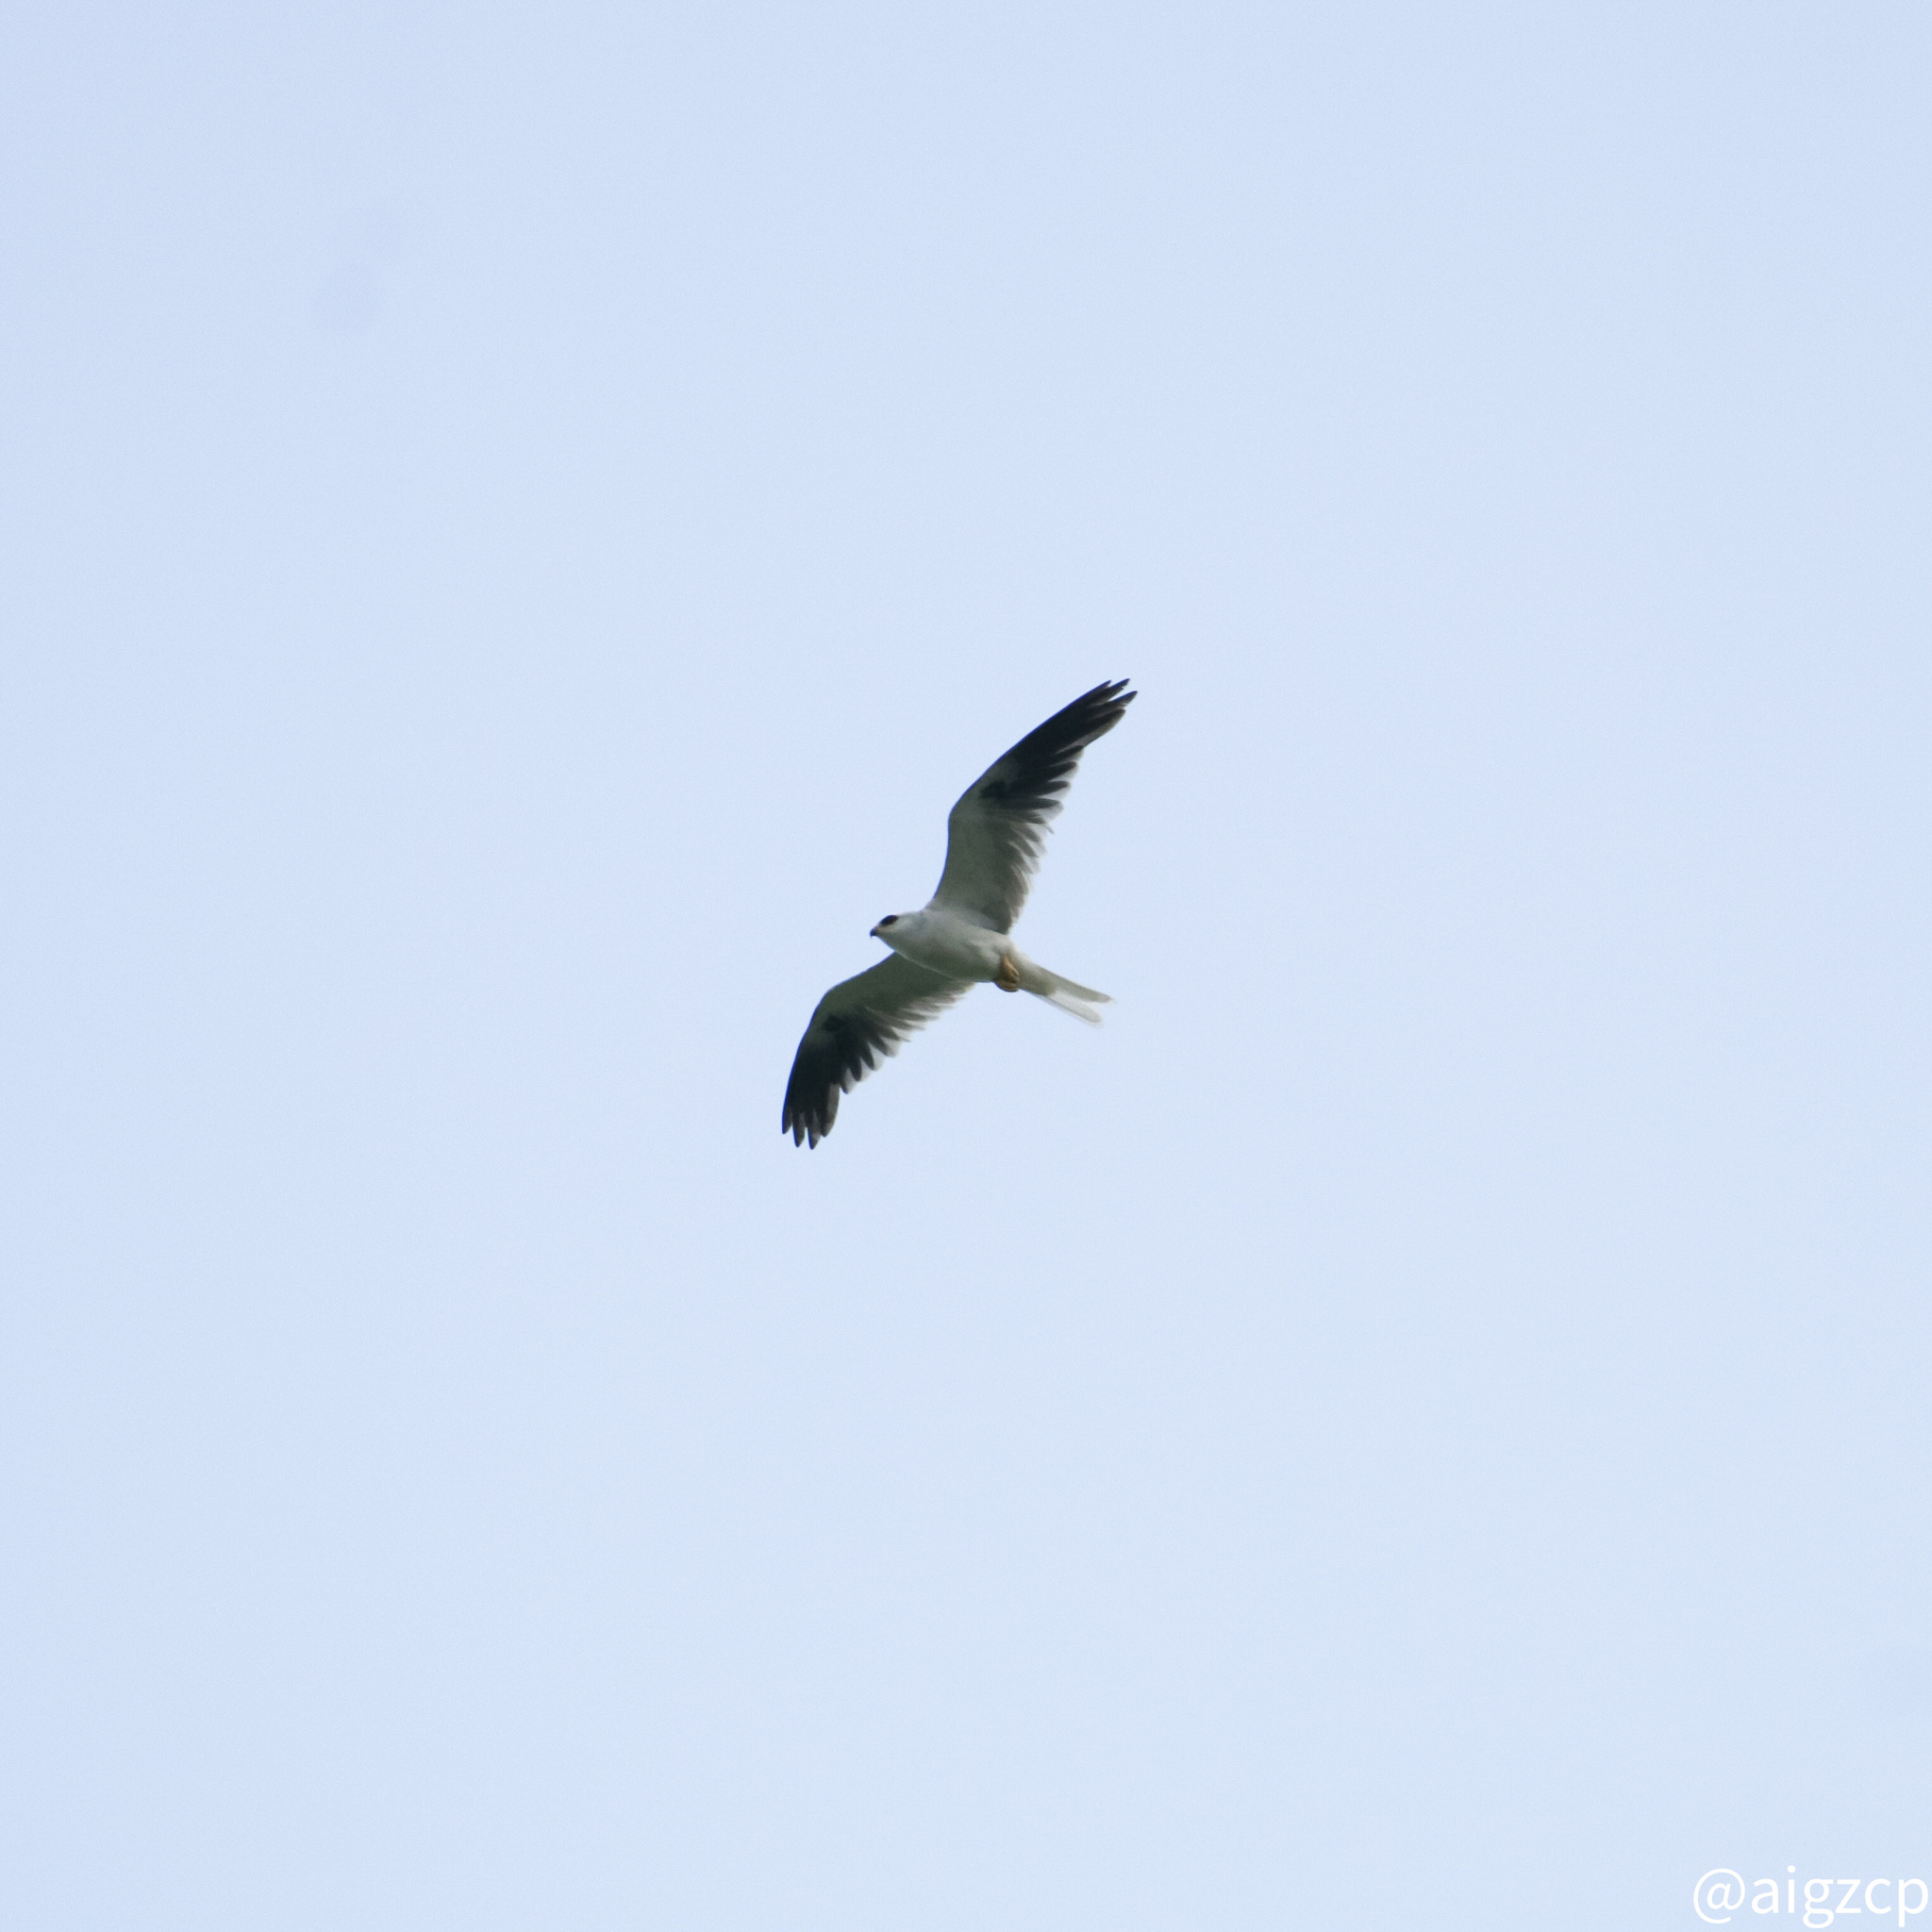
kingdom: Animalia
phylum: Chordata
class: Aves
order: Accipitriformes
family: Accipitridae
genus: Elanus
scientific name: Elanus leucurus
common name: White-tailed kite
